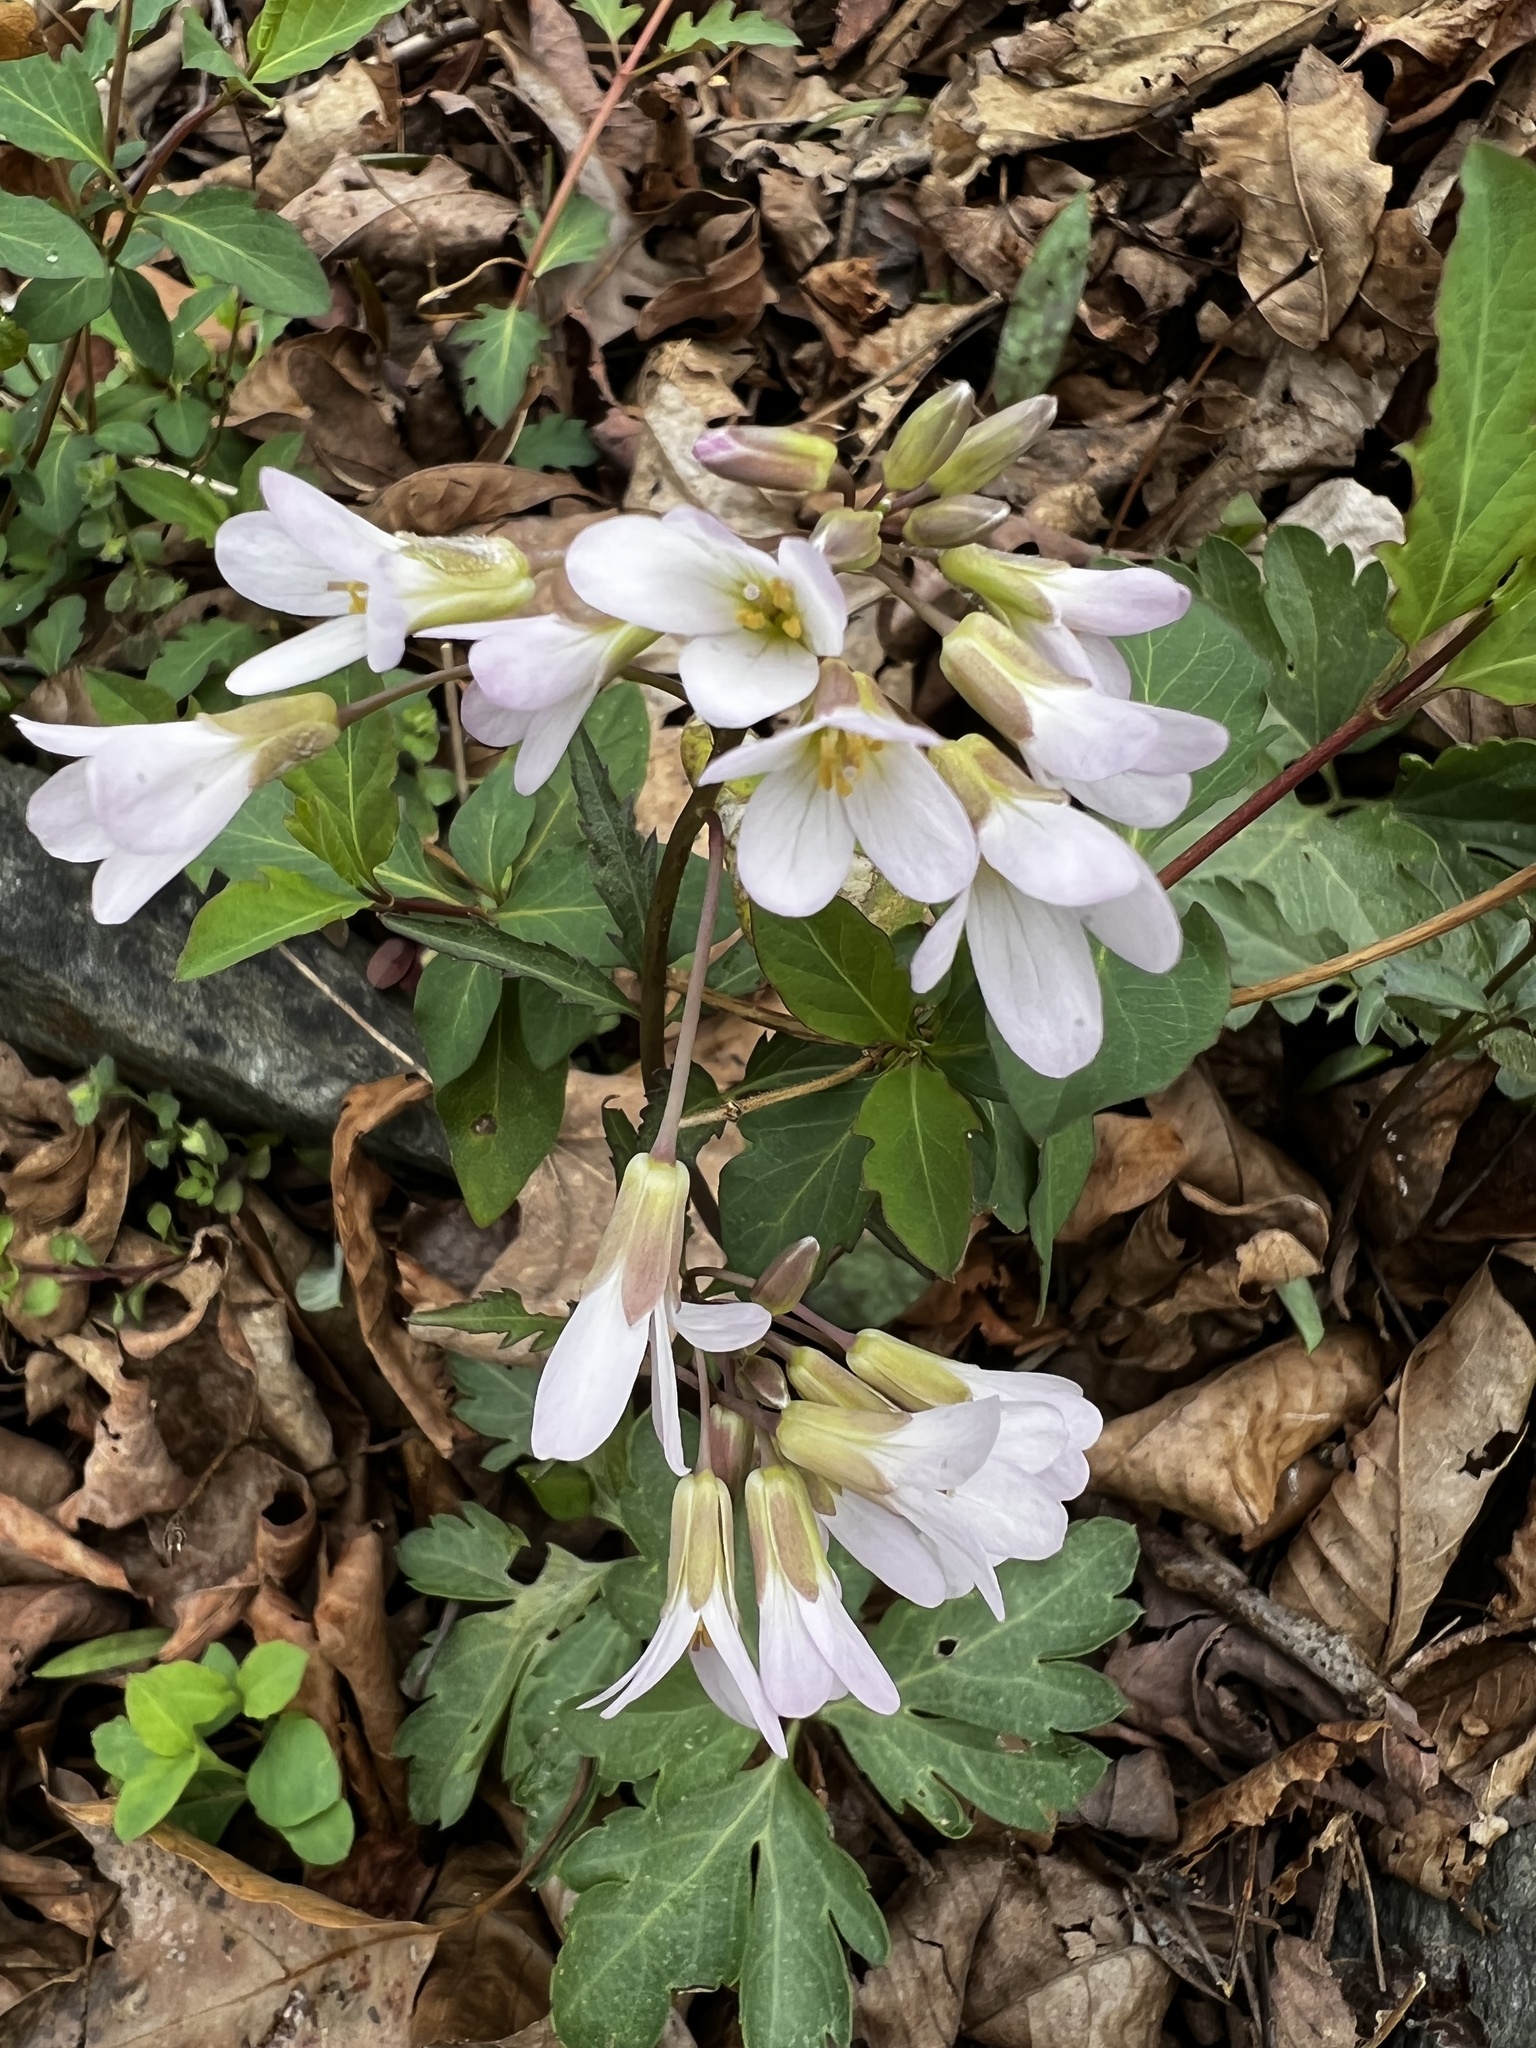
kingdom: Plantae
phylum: Tracheophyta
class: Magnoliopsida
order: Brassicales
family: Brassicaceae
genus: Cardamine
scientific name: Cardamine angustata
